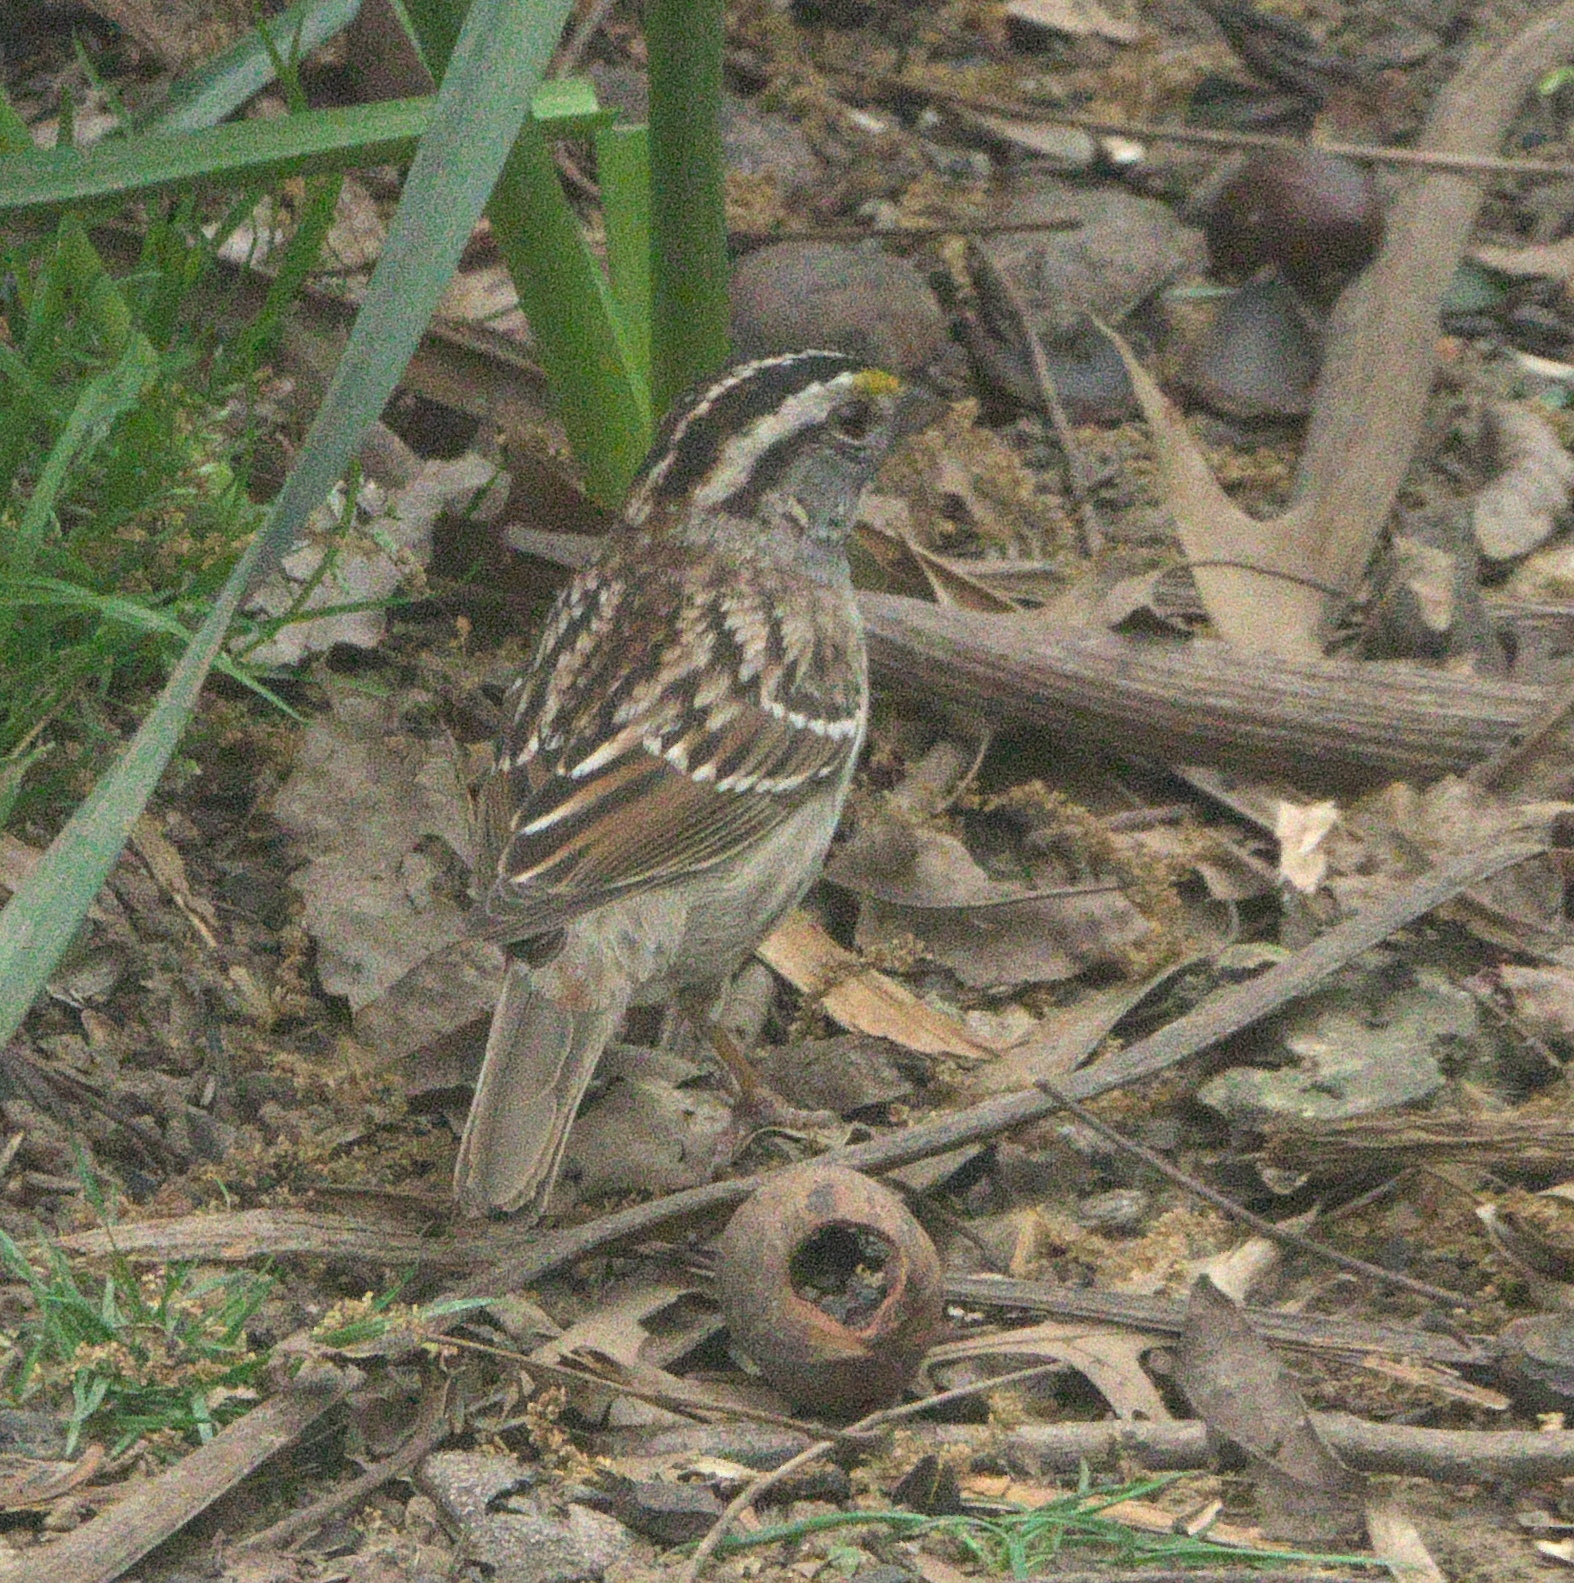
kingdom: Animalia
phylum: Chordata
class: Aves
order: Passeriformes
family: Passerellidae
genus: Zonotrichia
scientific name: Zonotrichia albicollis
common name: White-throated sparrow
